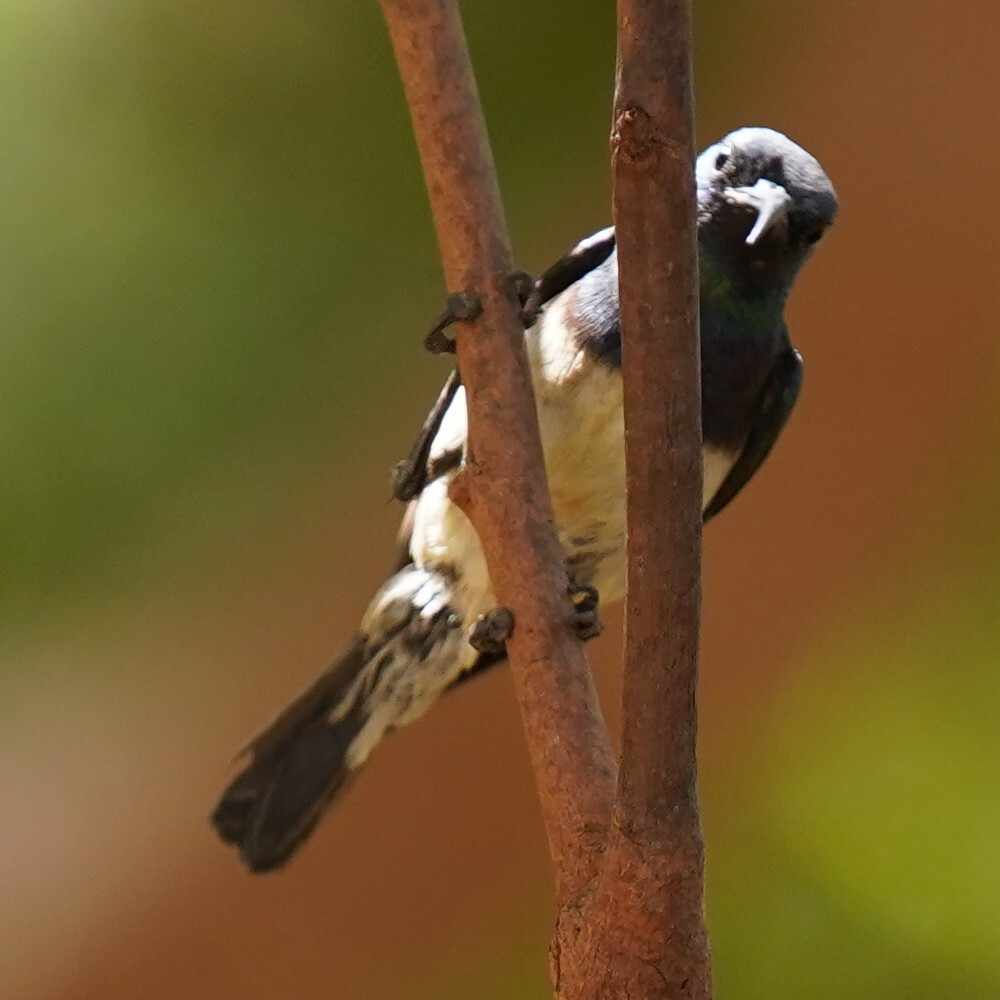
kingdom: Animalia
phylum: Chordata
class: Aves
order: Passeriformes
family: Nectariniidae
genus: Cinnyris
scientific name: Cinnyris venustus
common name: Variable sunbird
